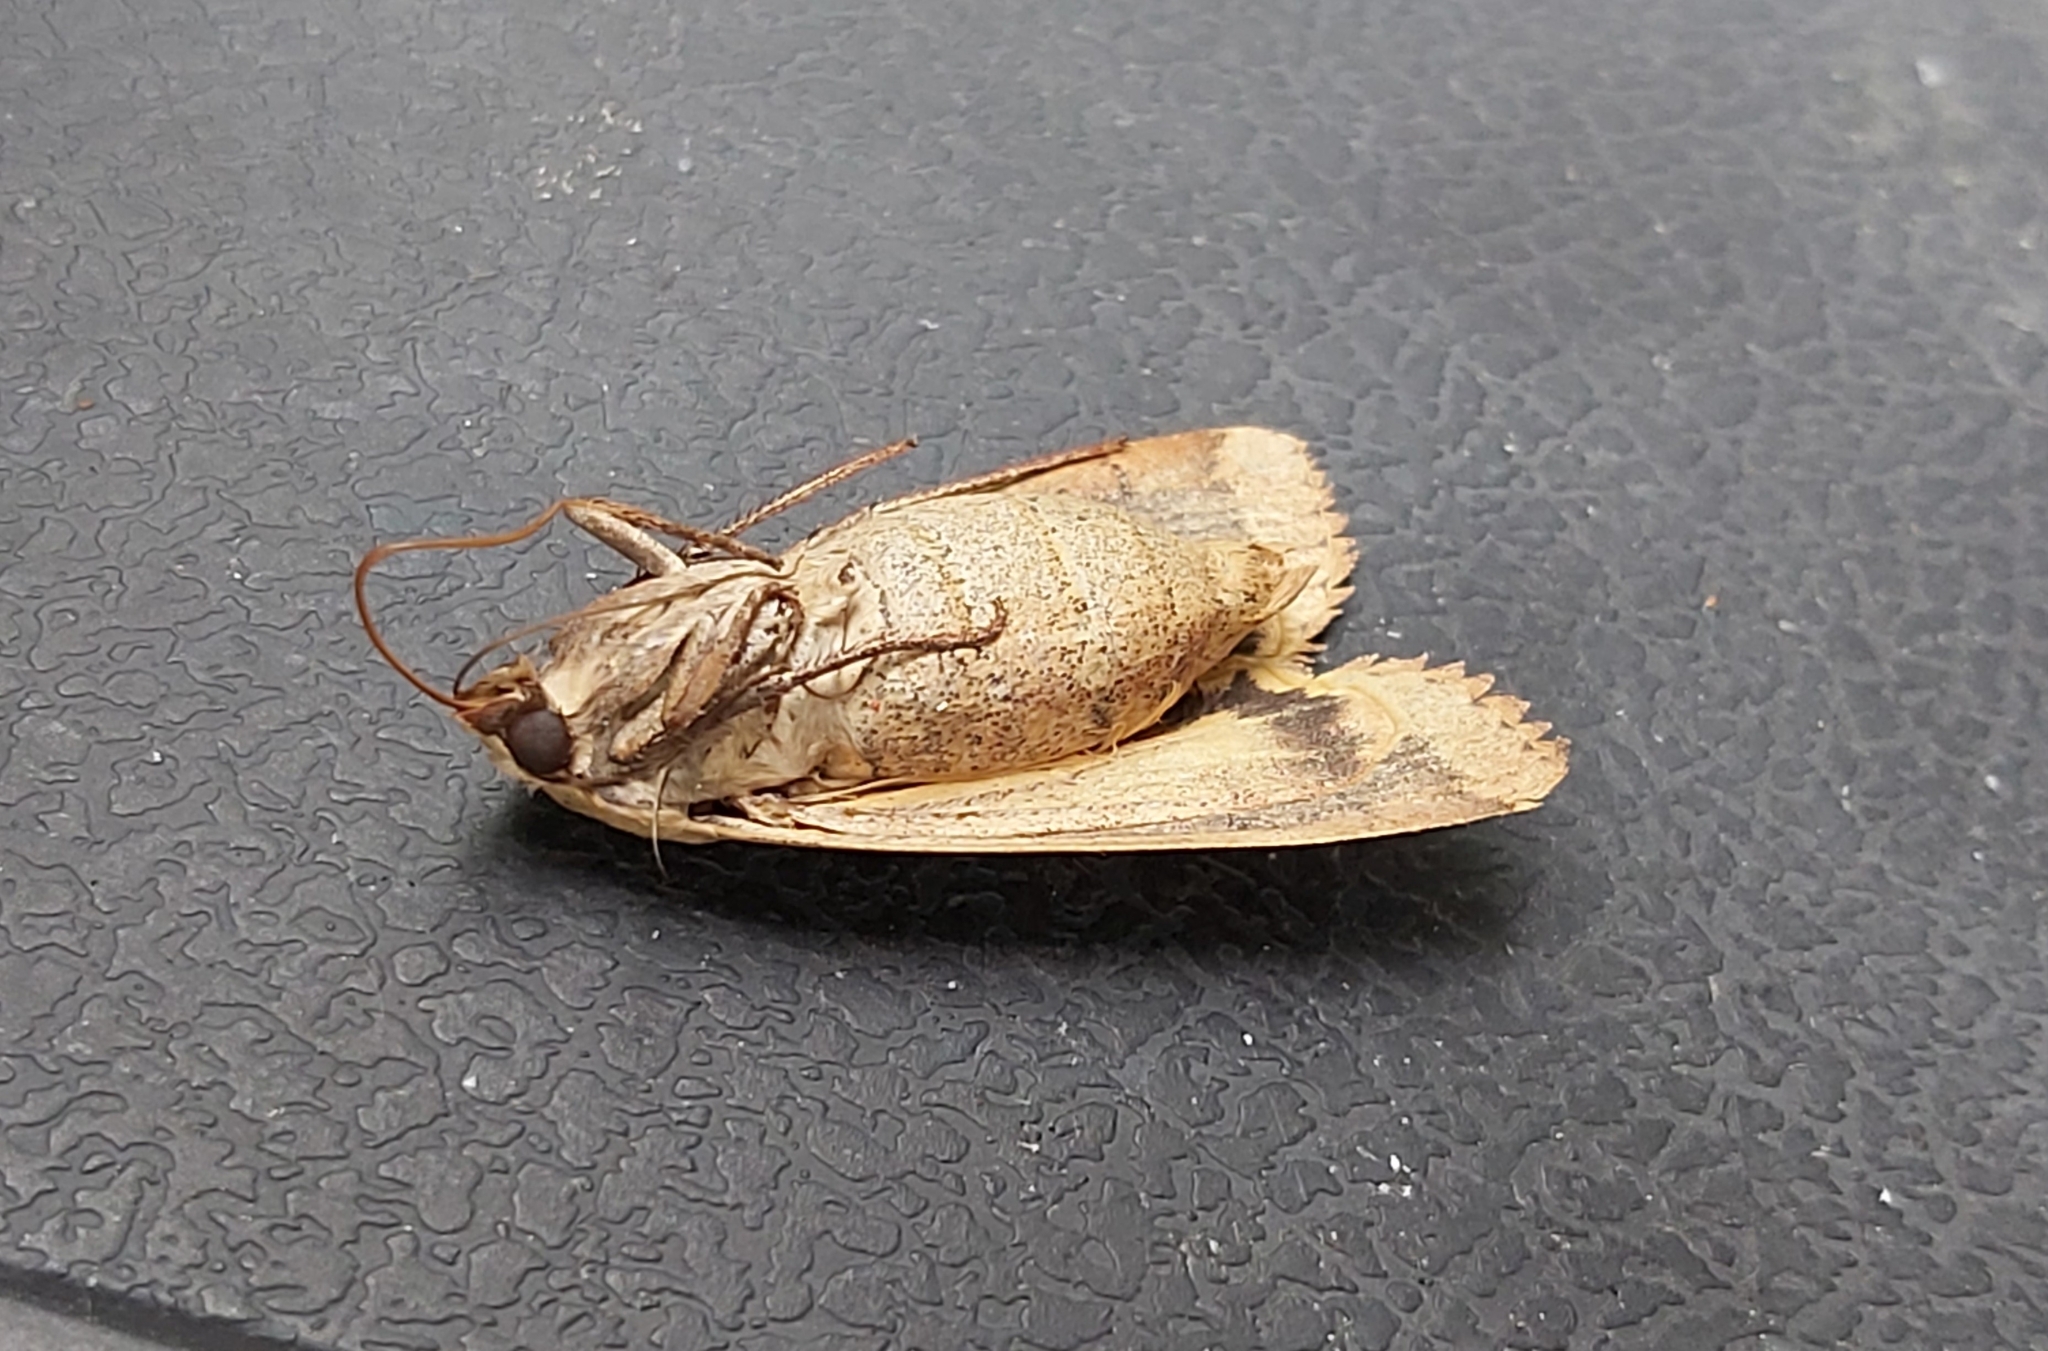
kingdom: Animalia
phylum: Arthropoda
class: Insecta
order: Lepidoptera
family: Noctuidae
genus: Noctua
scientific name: Noctua pronuba
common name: Large yellow underwing
